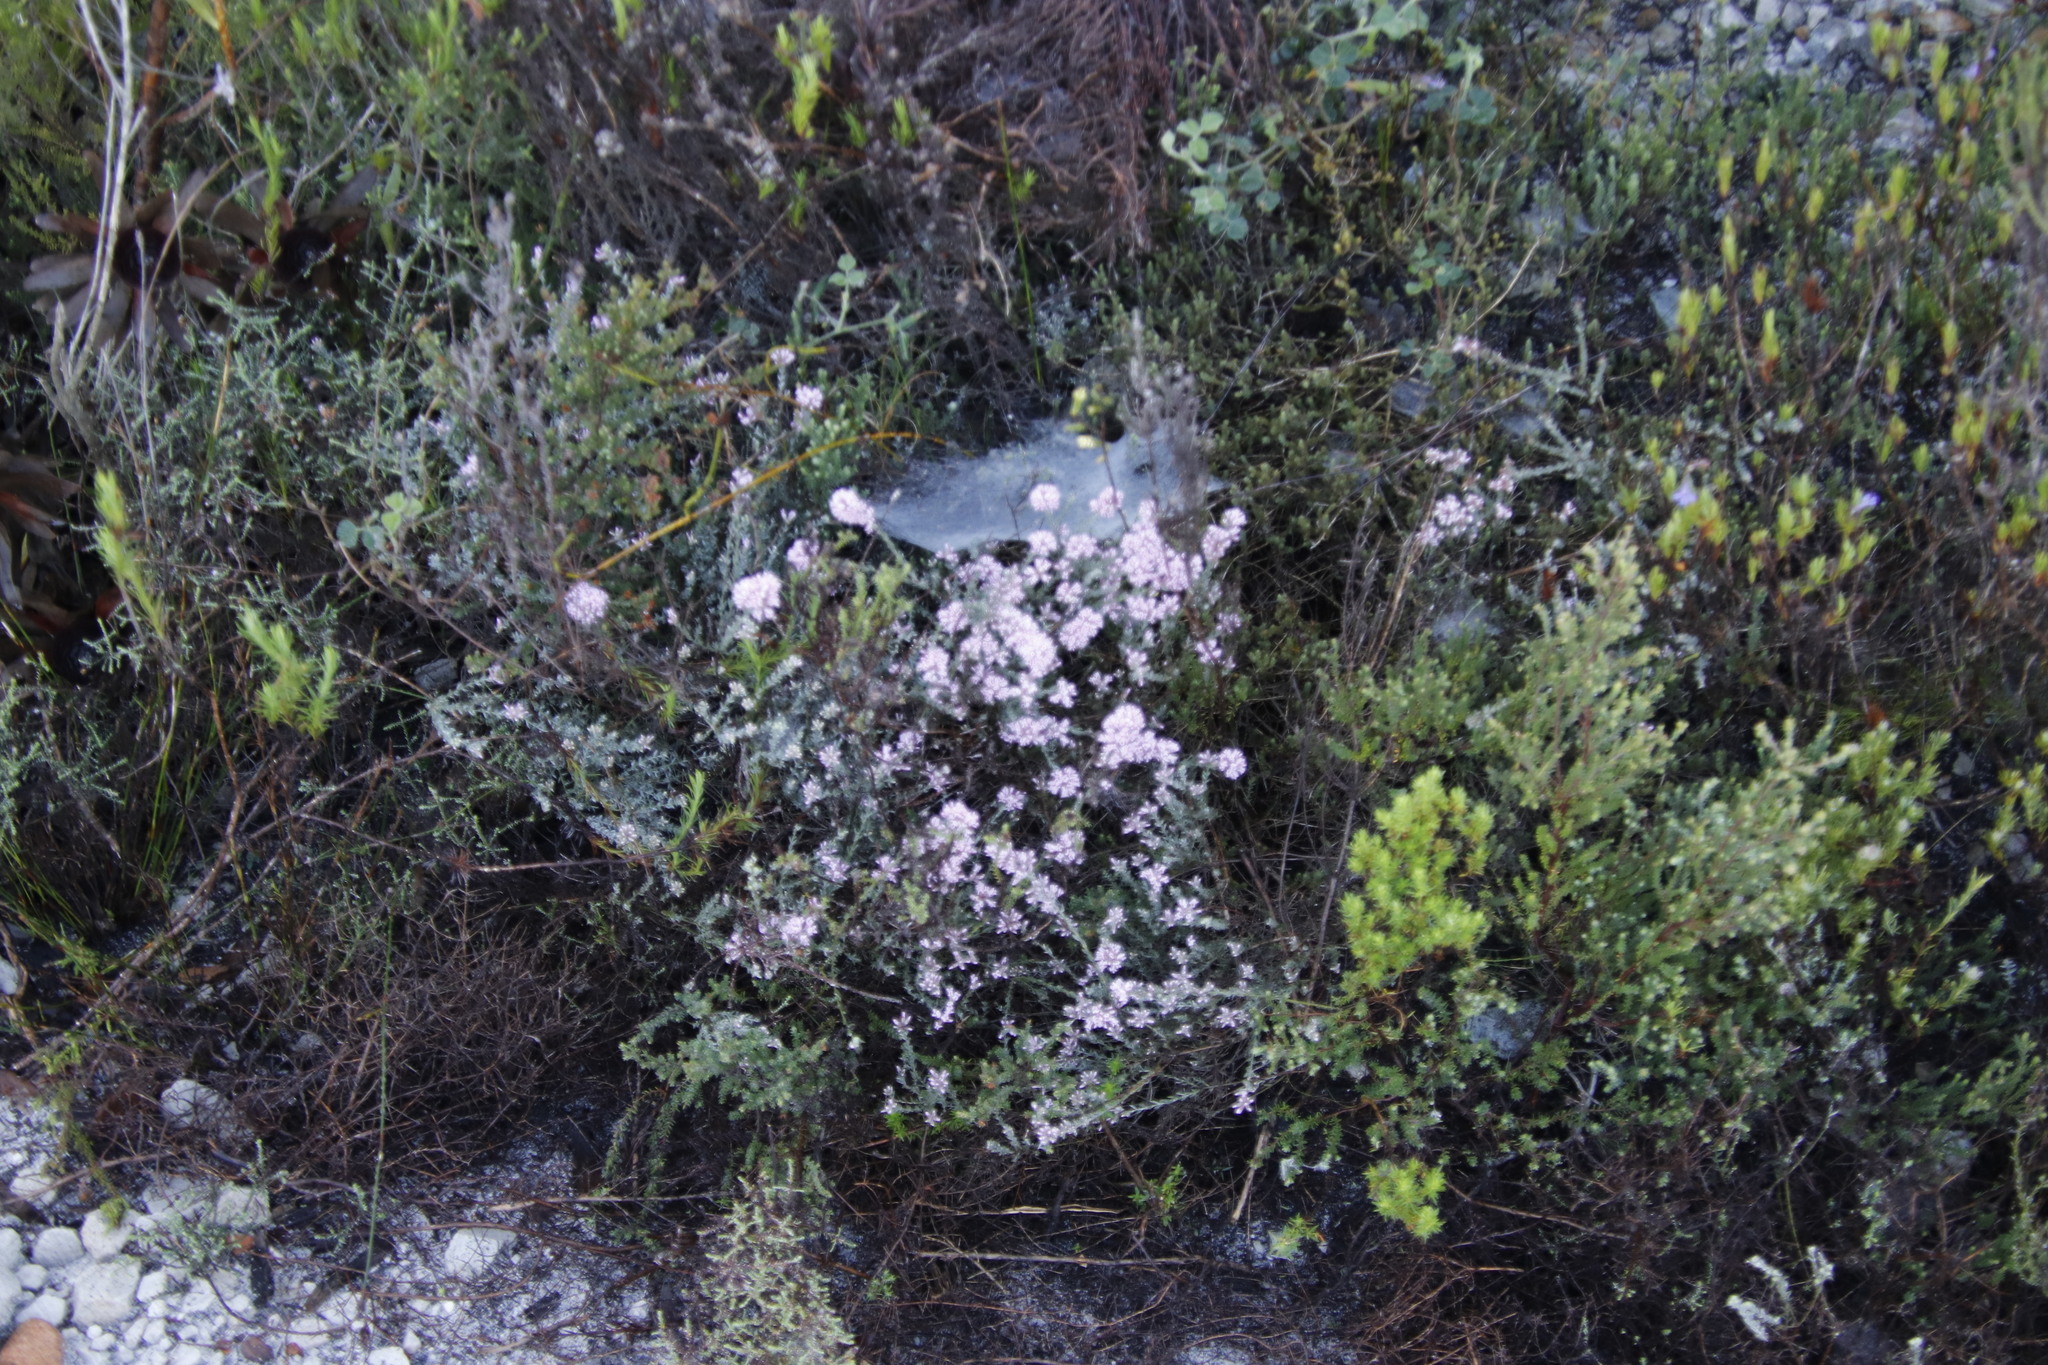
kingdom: Plantae
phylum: Tracheophyta
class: Magnoliopsida
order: Fabales
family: Fabaceae
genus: Amphithalea
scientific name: Amphithalea ericifolia
